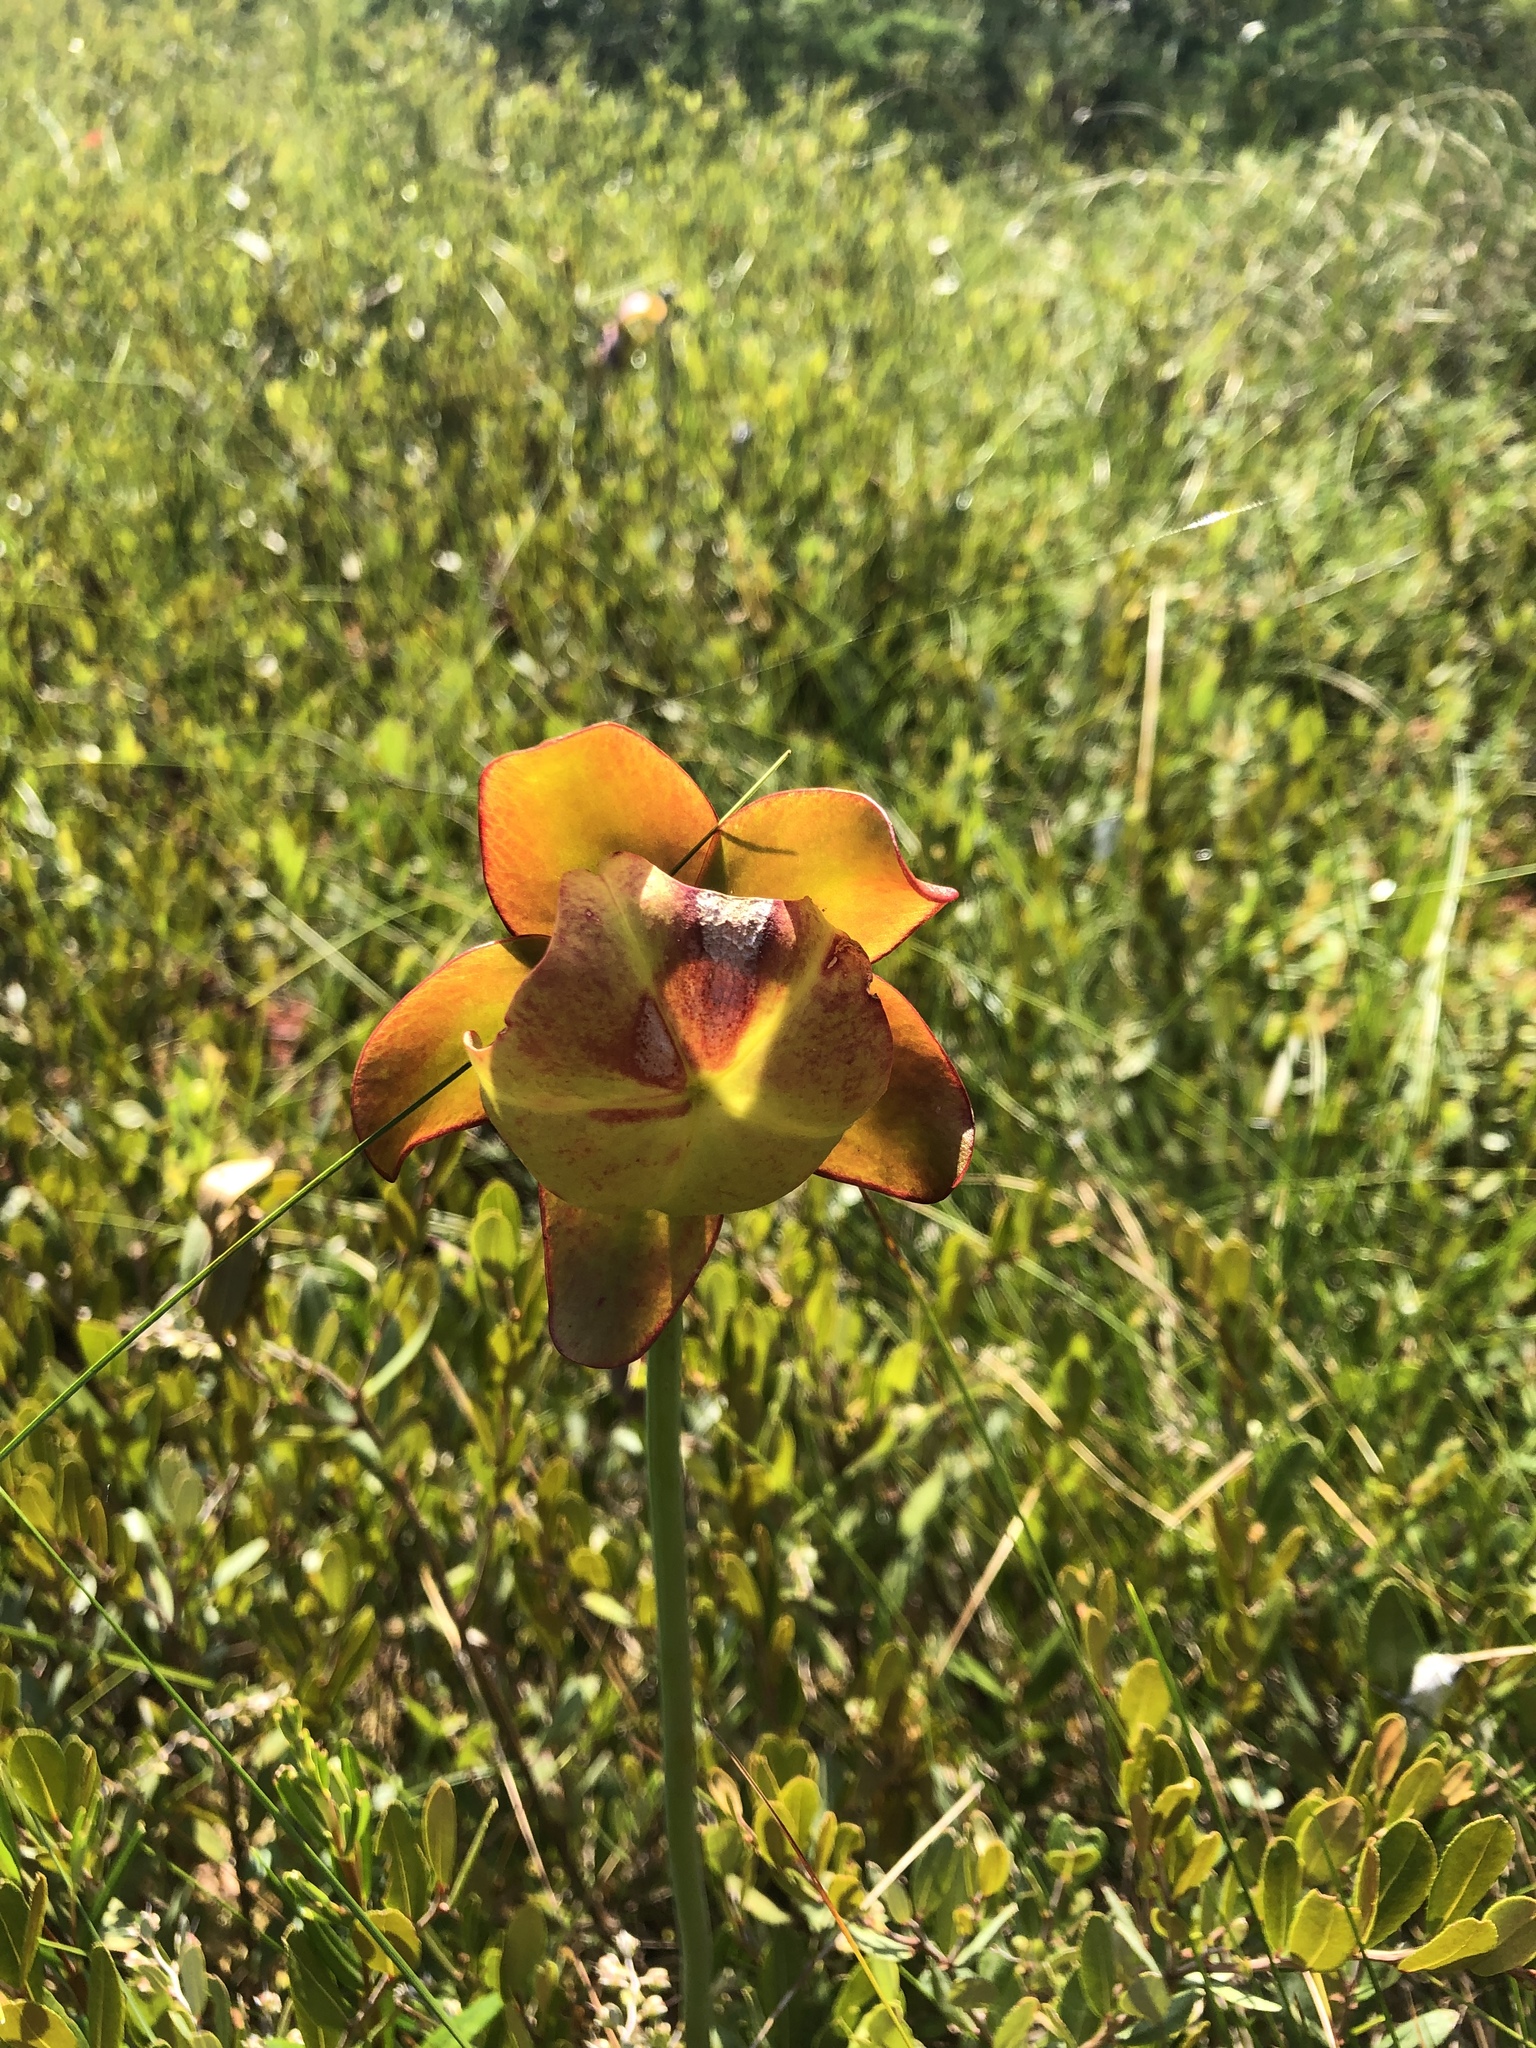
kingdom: Plantae
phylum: Tracheophyta
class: Magnoliopsida
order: Ericales
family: Sarraceniaceae
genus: Sarracenia
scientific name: Sarracenia purpurea
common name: Pitcherplant
